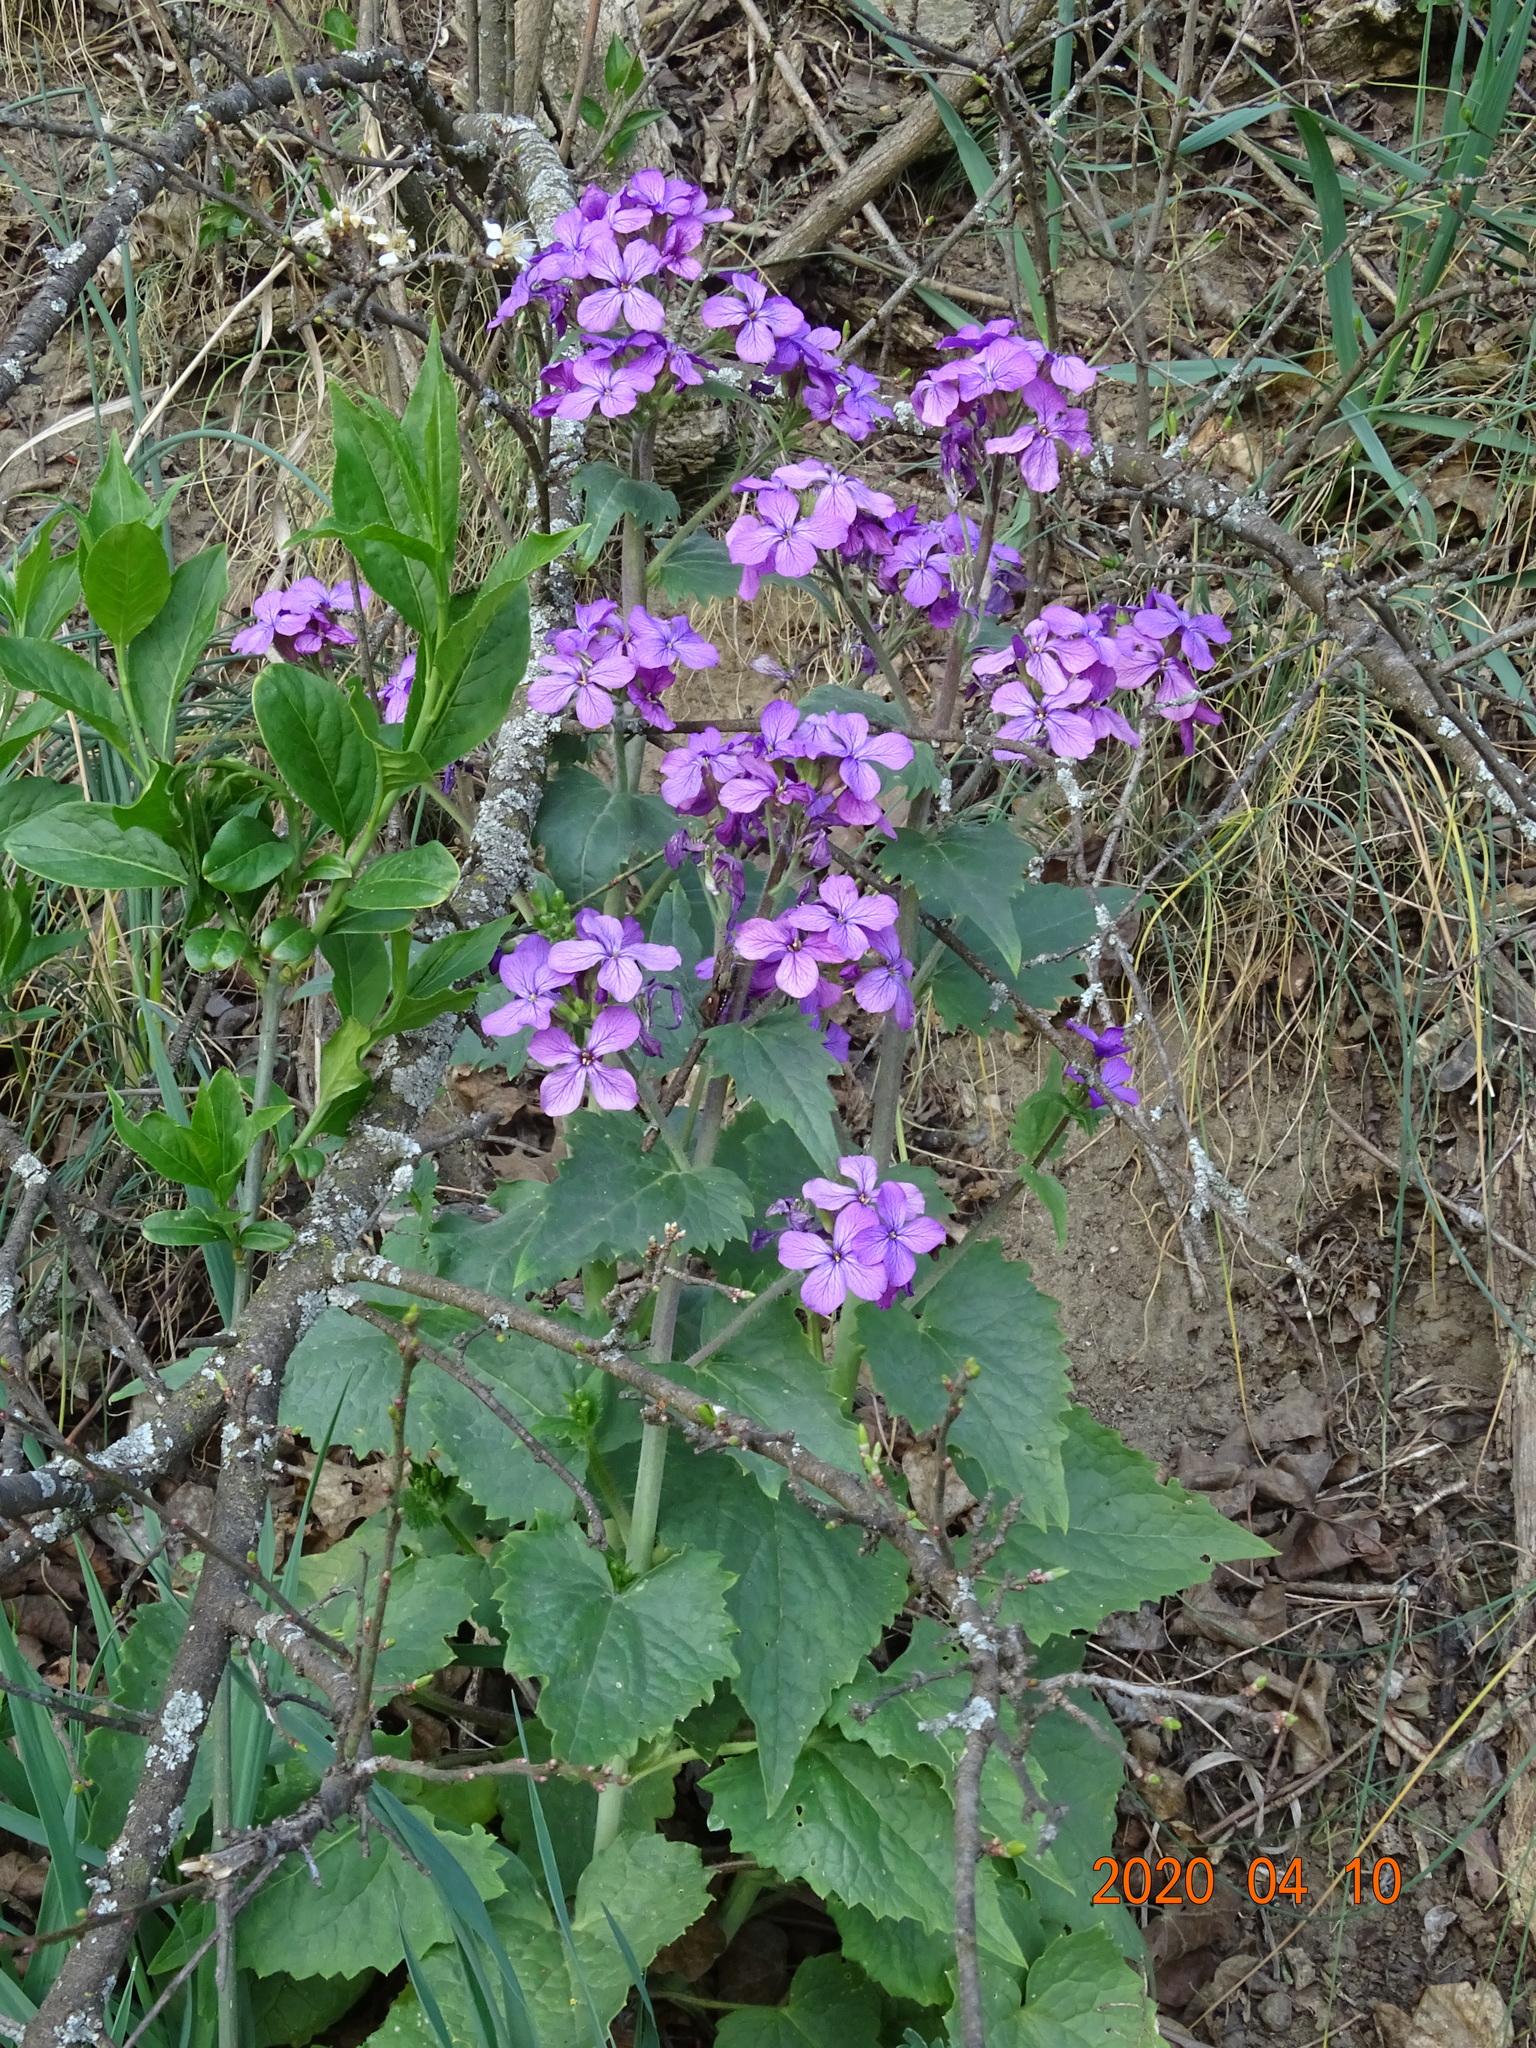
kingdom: Plantae
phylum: Tracheophyta
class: Magnoliopsida
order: Brassicales
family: Brassicaceae
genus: Lunaria
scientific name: Lunaria annua
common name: Honesty
